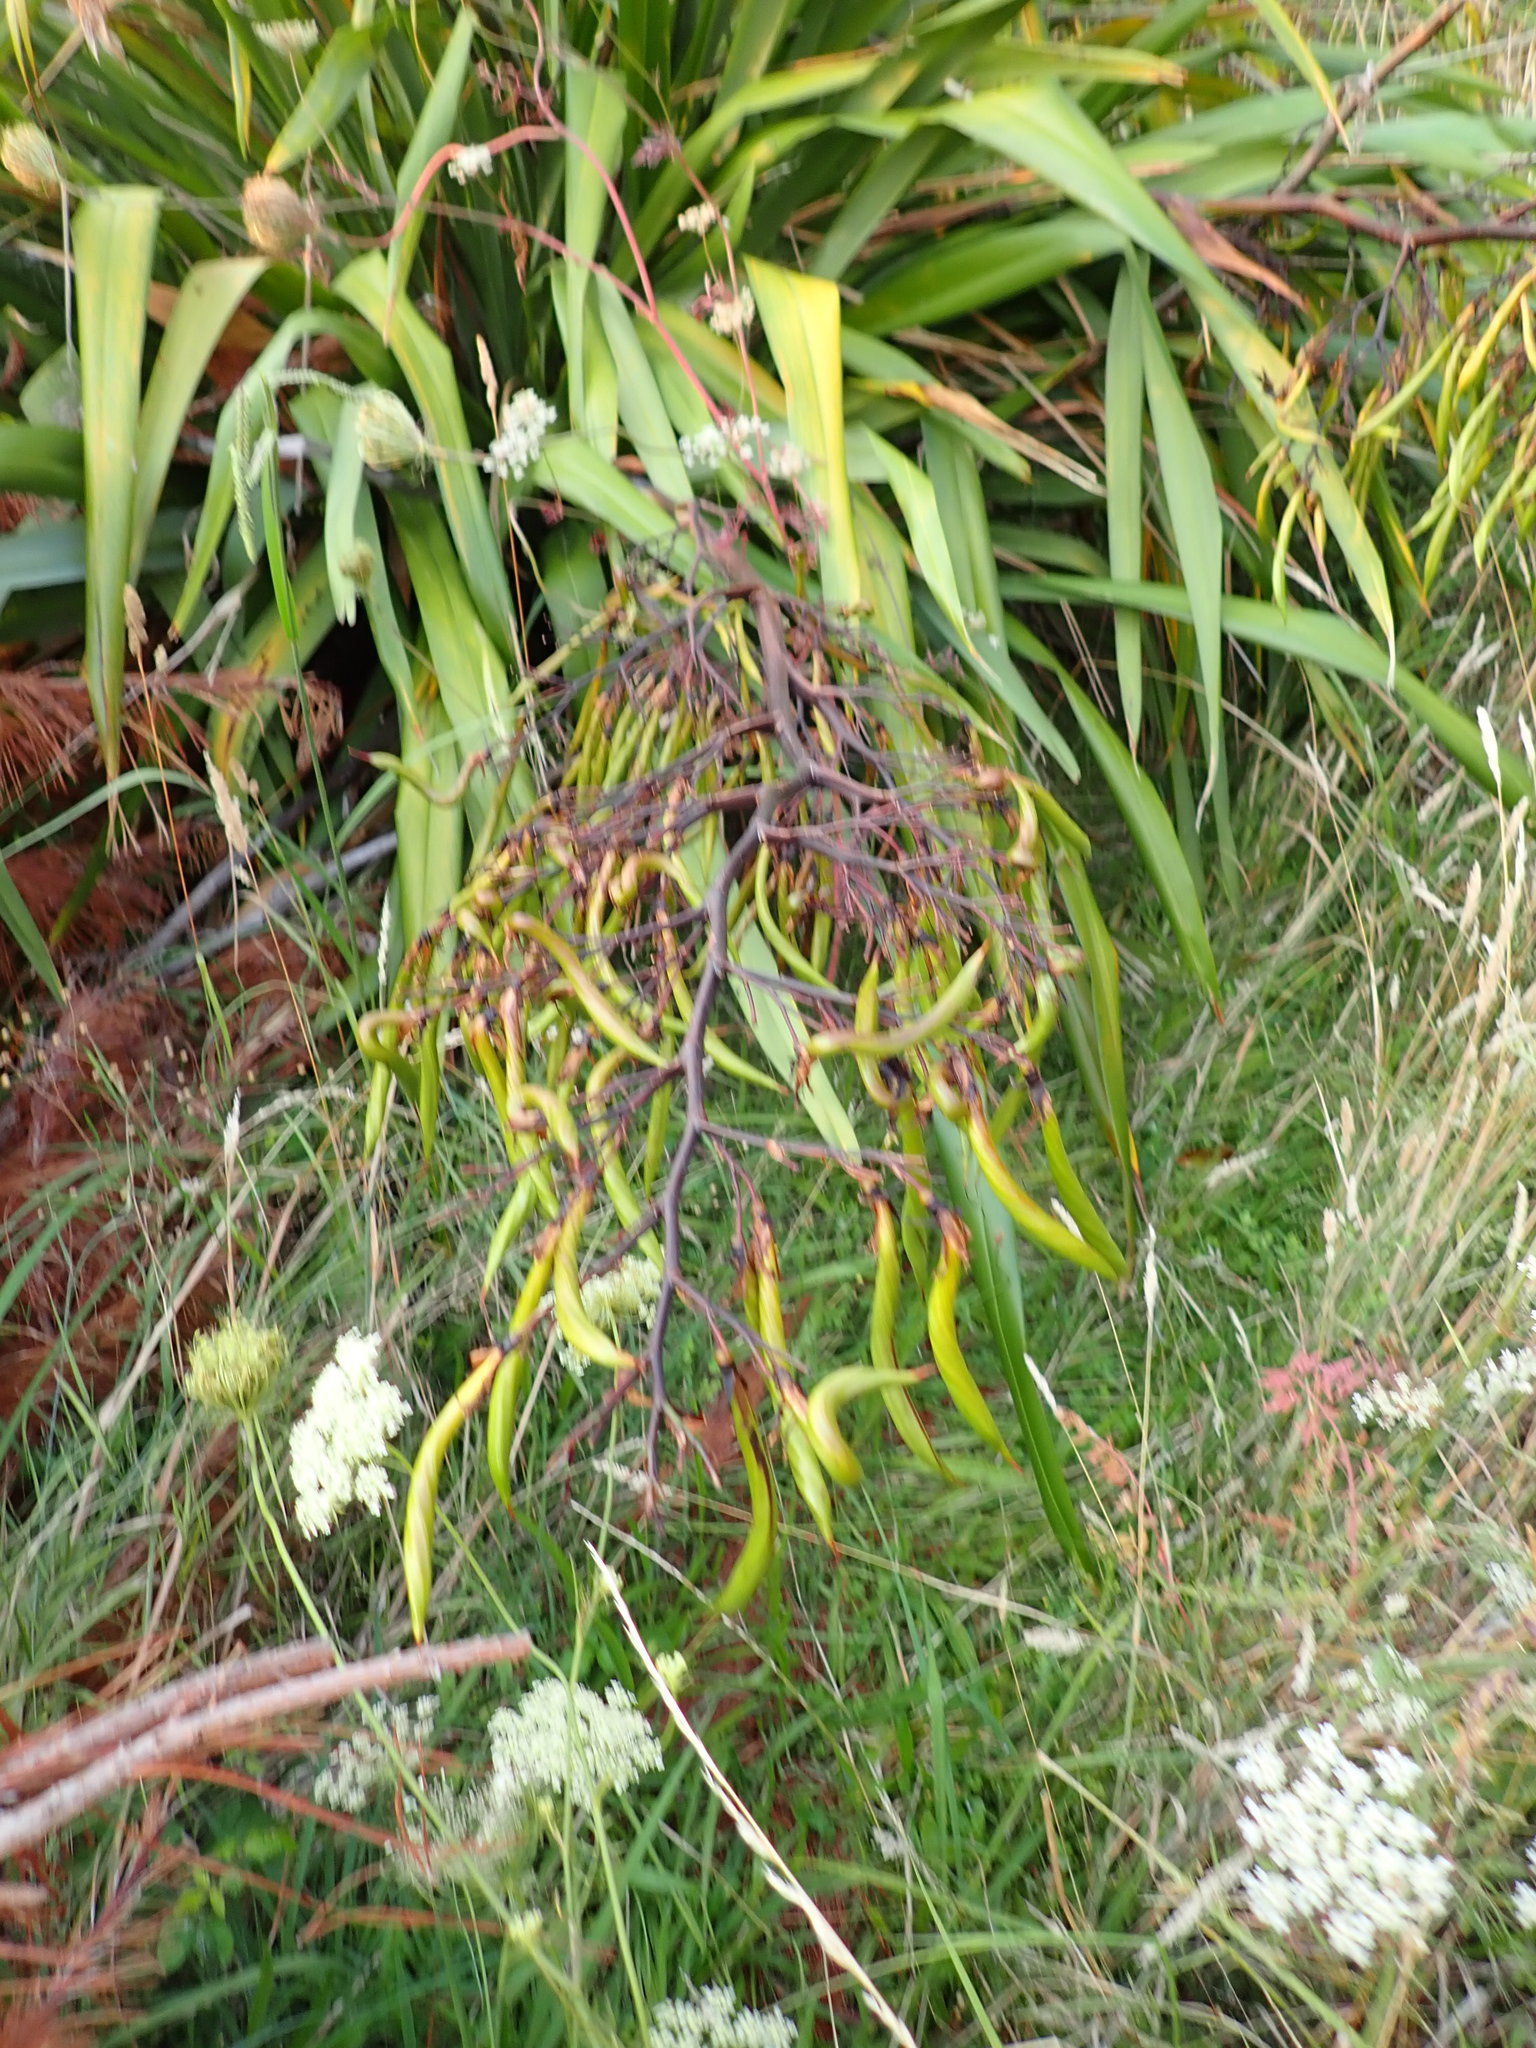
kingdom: Plantae
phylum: Tracheophyta
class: Liliopsida
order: Asparagales
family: Asphodelaceae
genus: Phormium
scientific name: Phormium colensoi
